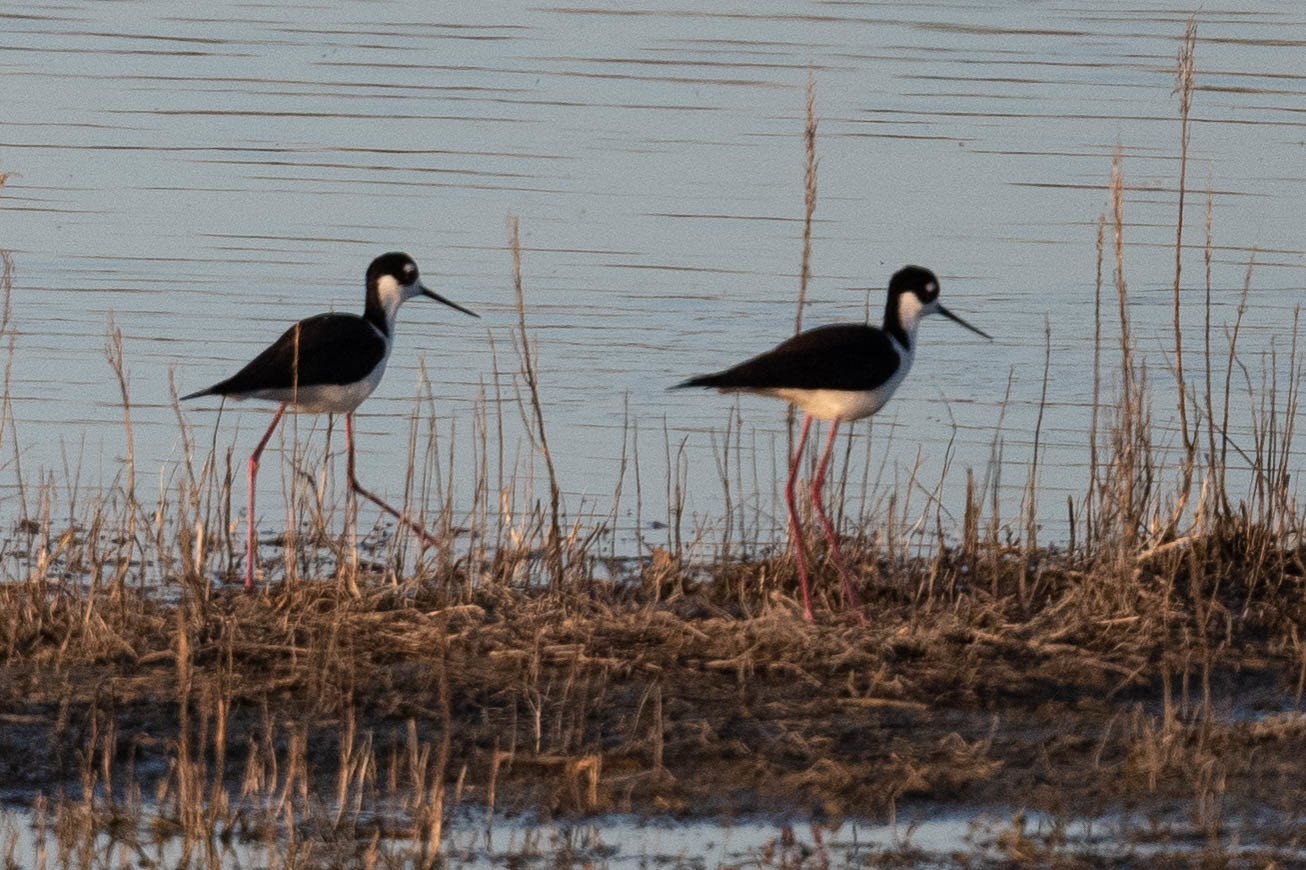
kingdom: Animalia
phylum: Chordata
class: Aves
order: Charadriiformes
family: Recurvirostridae
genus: Himantopus
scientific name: Himantopus mexicanus
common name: Black-necked stilt
